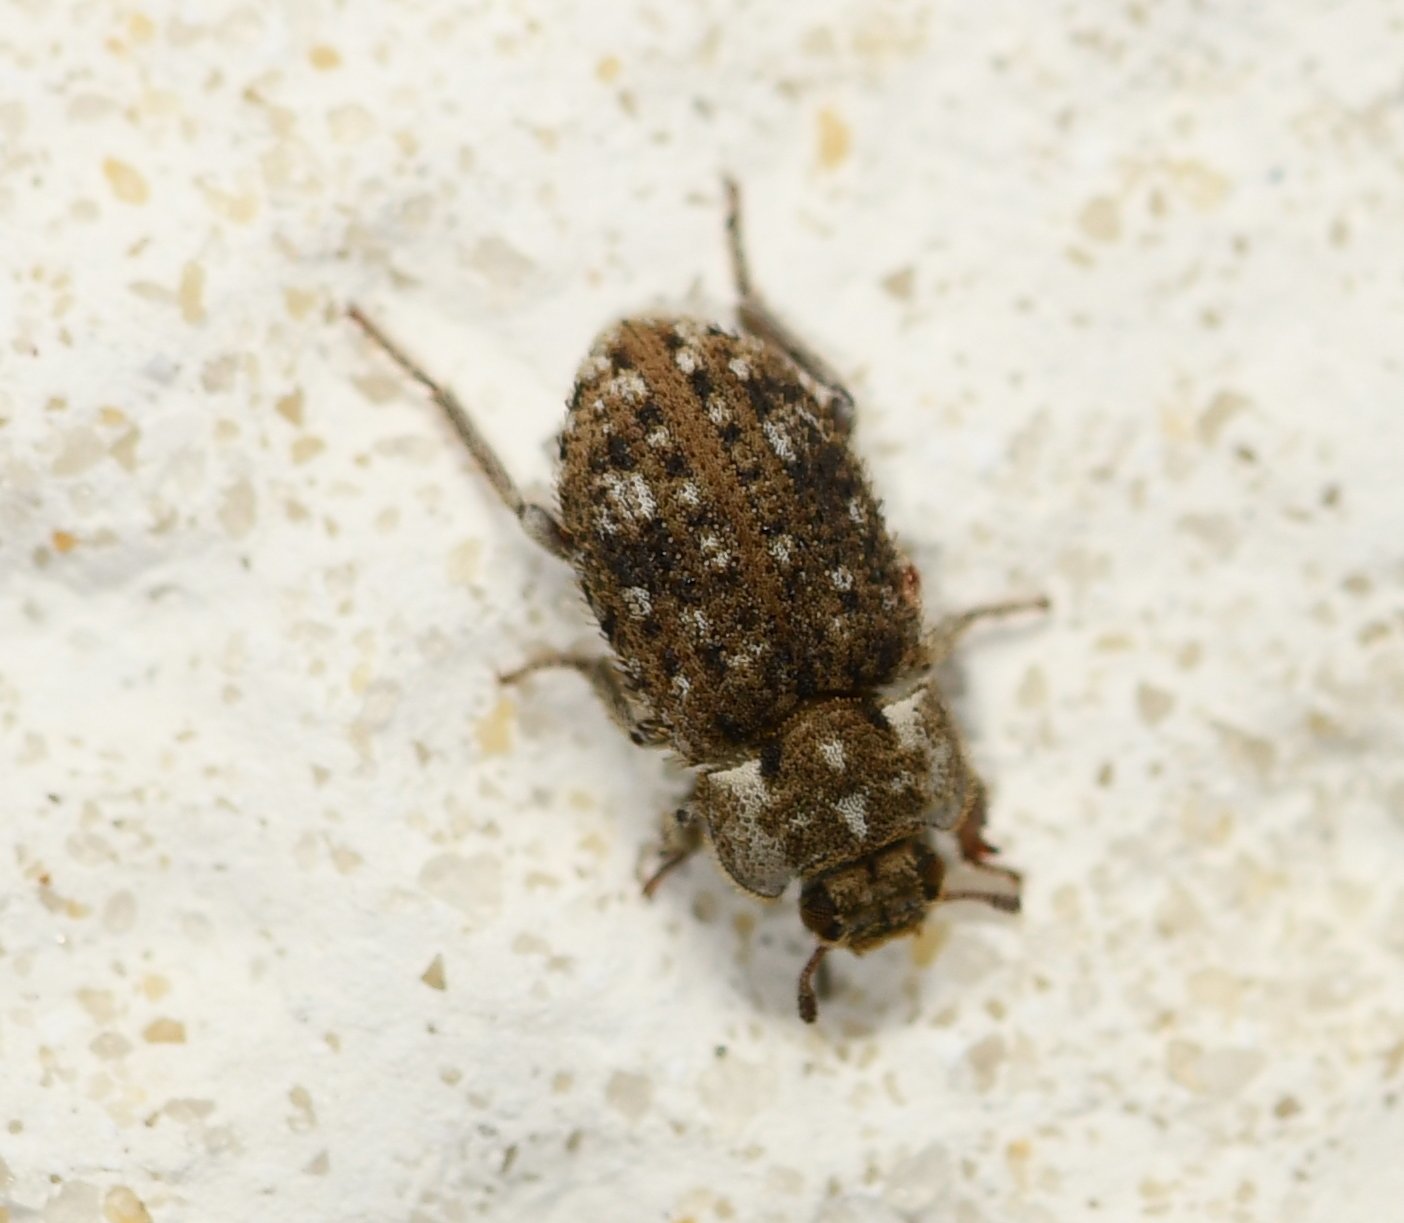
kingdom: Animalia
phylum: Arthropoda
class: Insecta
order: Coleoptera
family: Tenebrionidae
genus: Leichenum
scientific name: Leichenum canaliculatum
